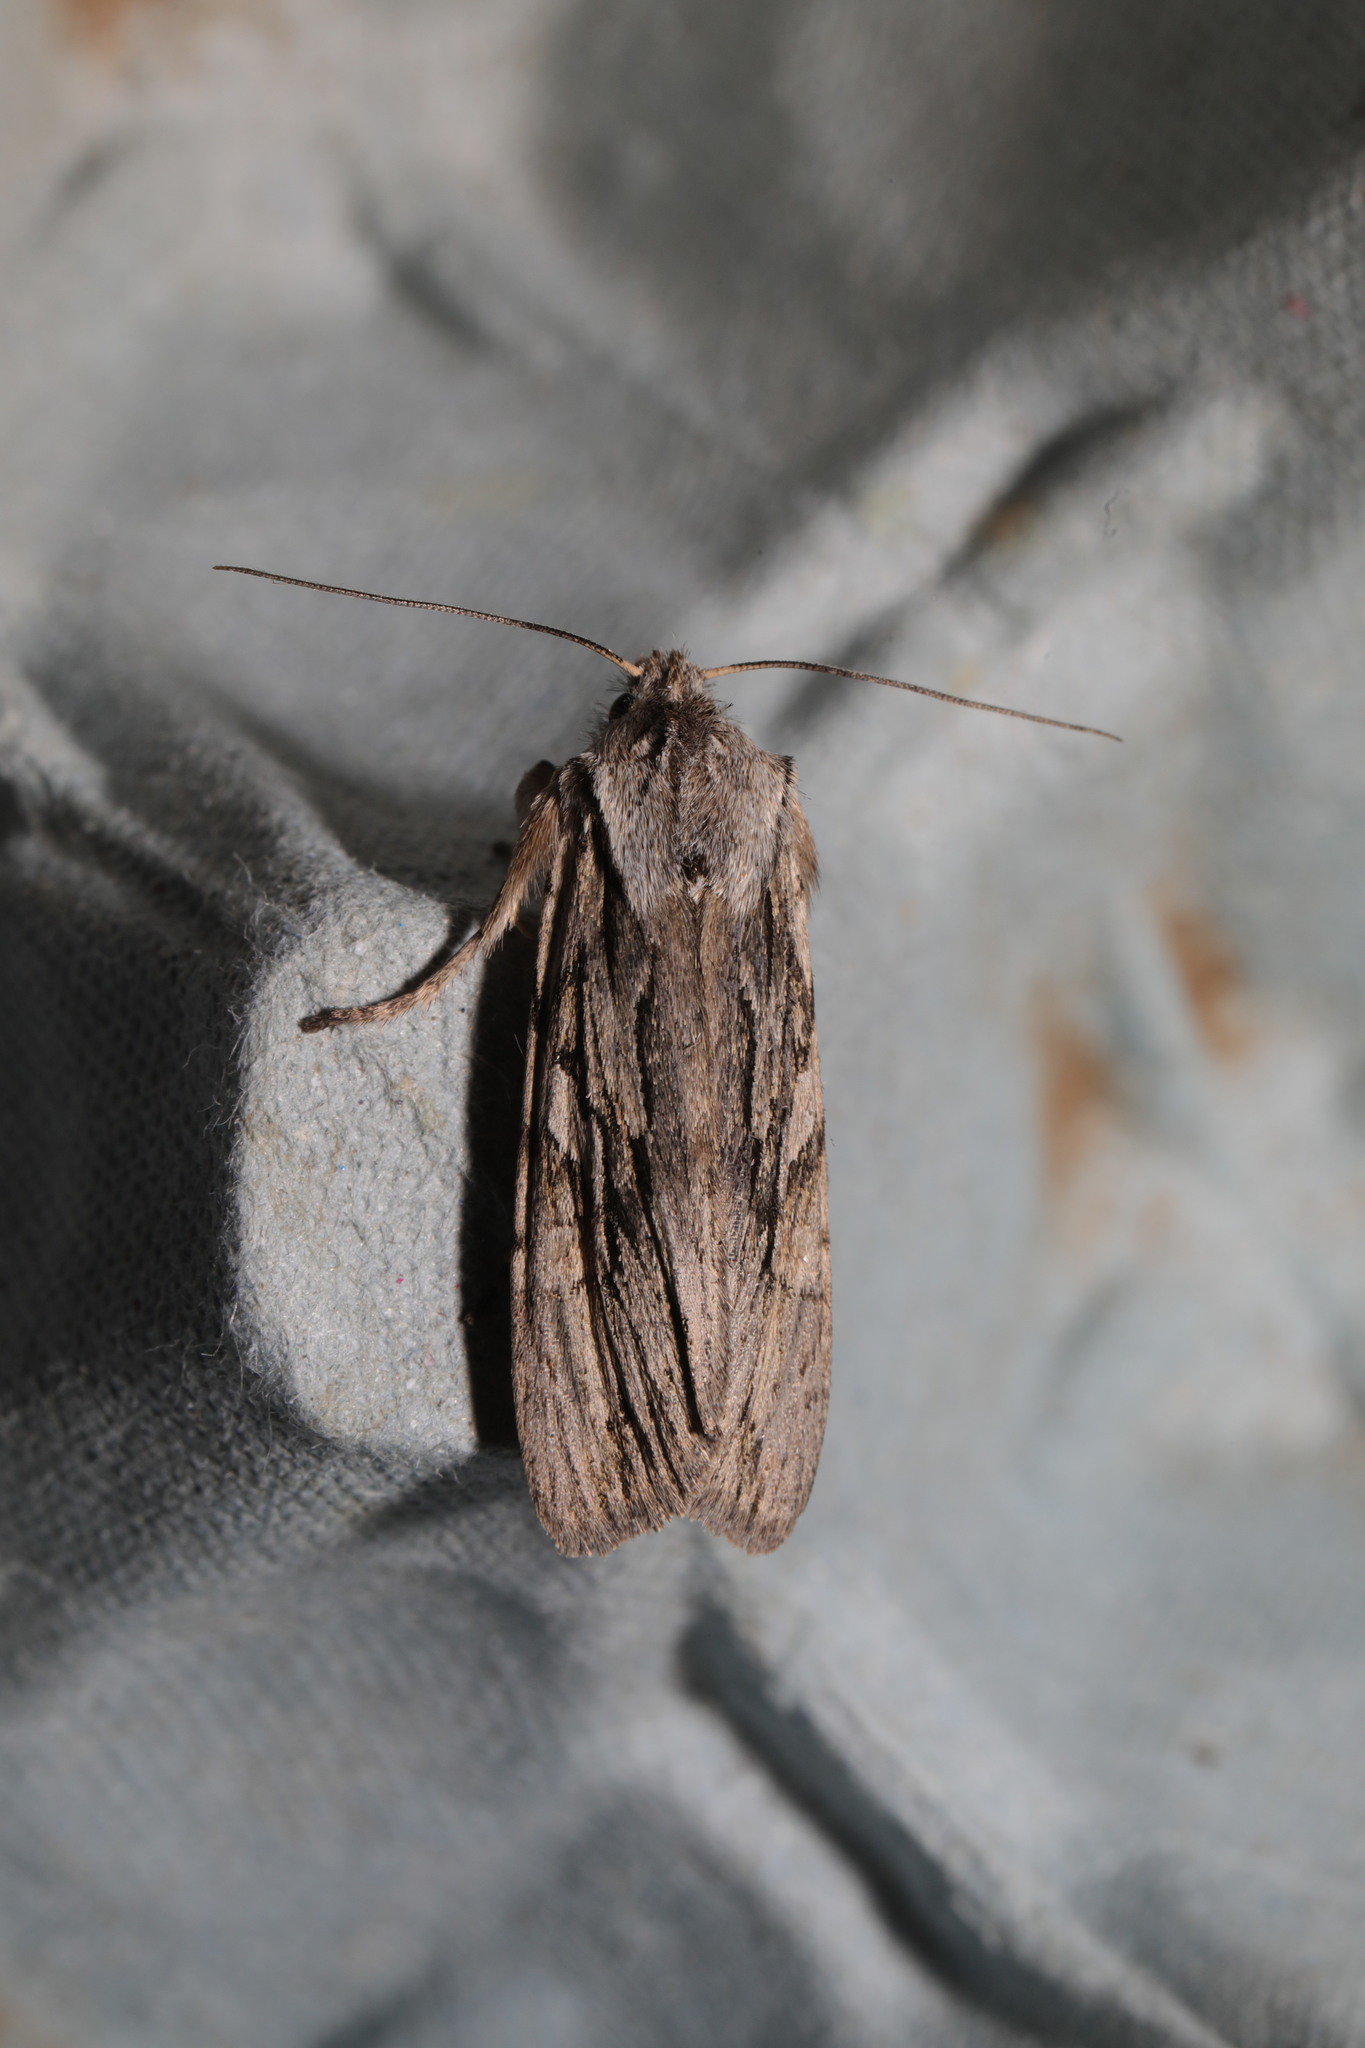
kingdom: Animalia
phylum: Arthropoda
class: Insecta
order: Lepidoptera
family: Noctuidae
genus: Lithophane
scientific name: Lithophane leautieri
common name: Blair's shoulder-knot
